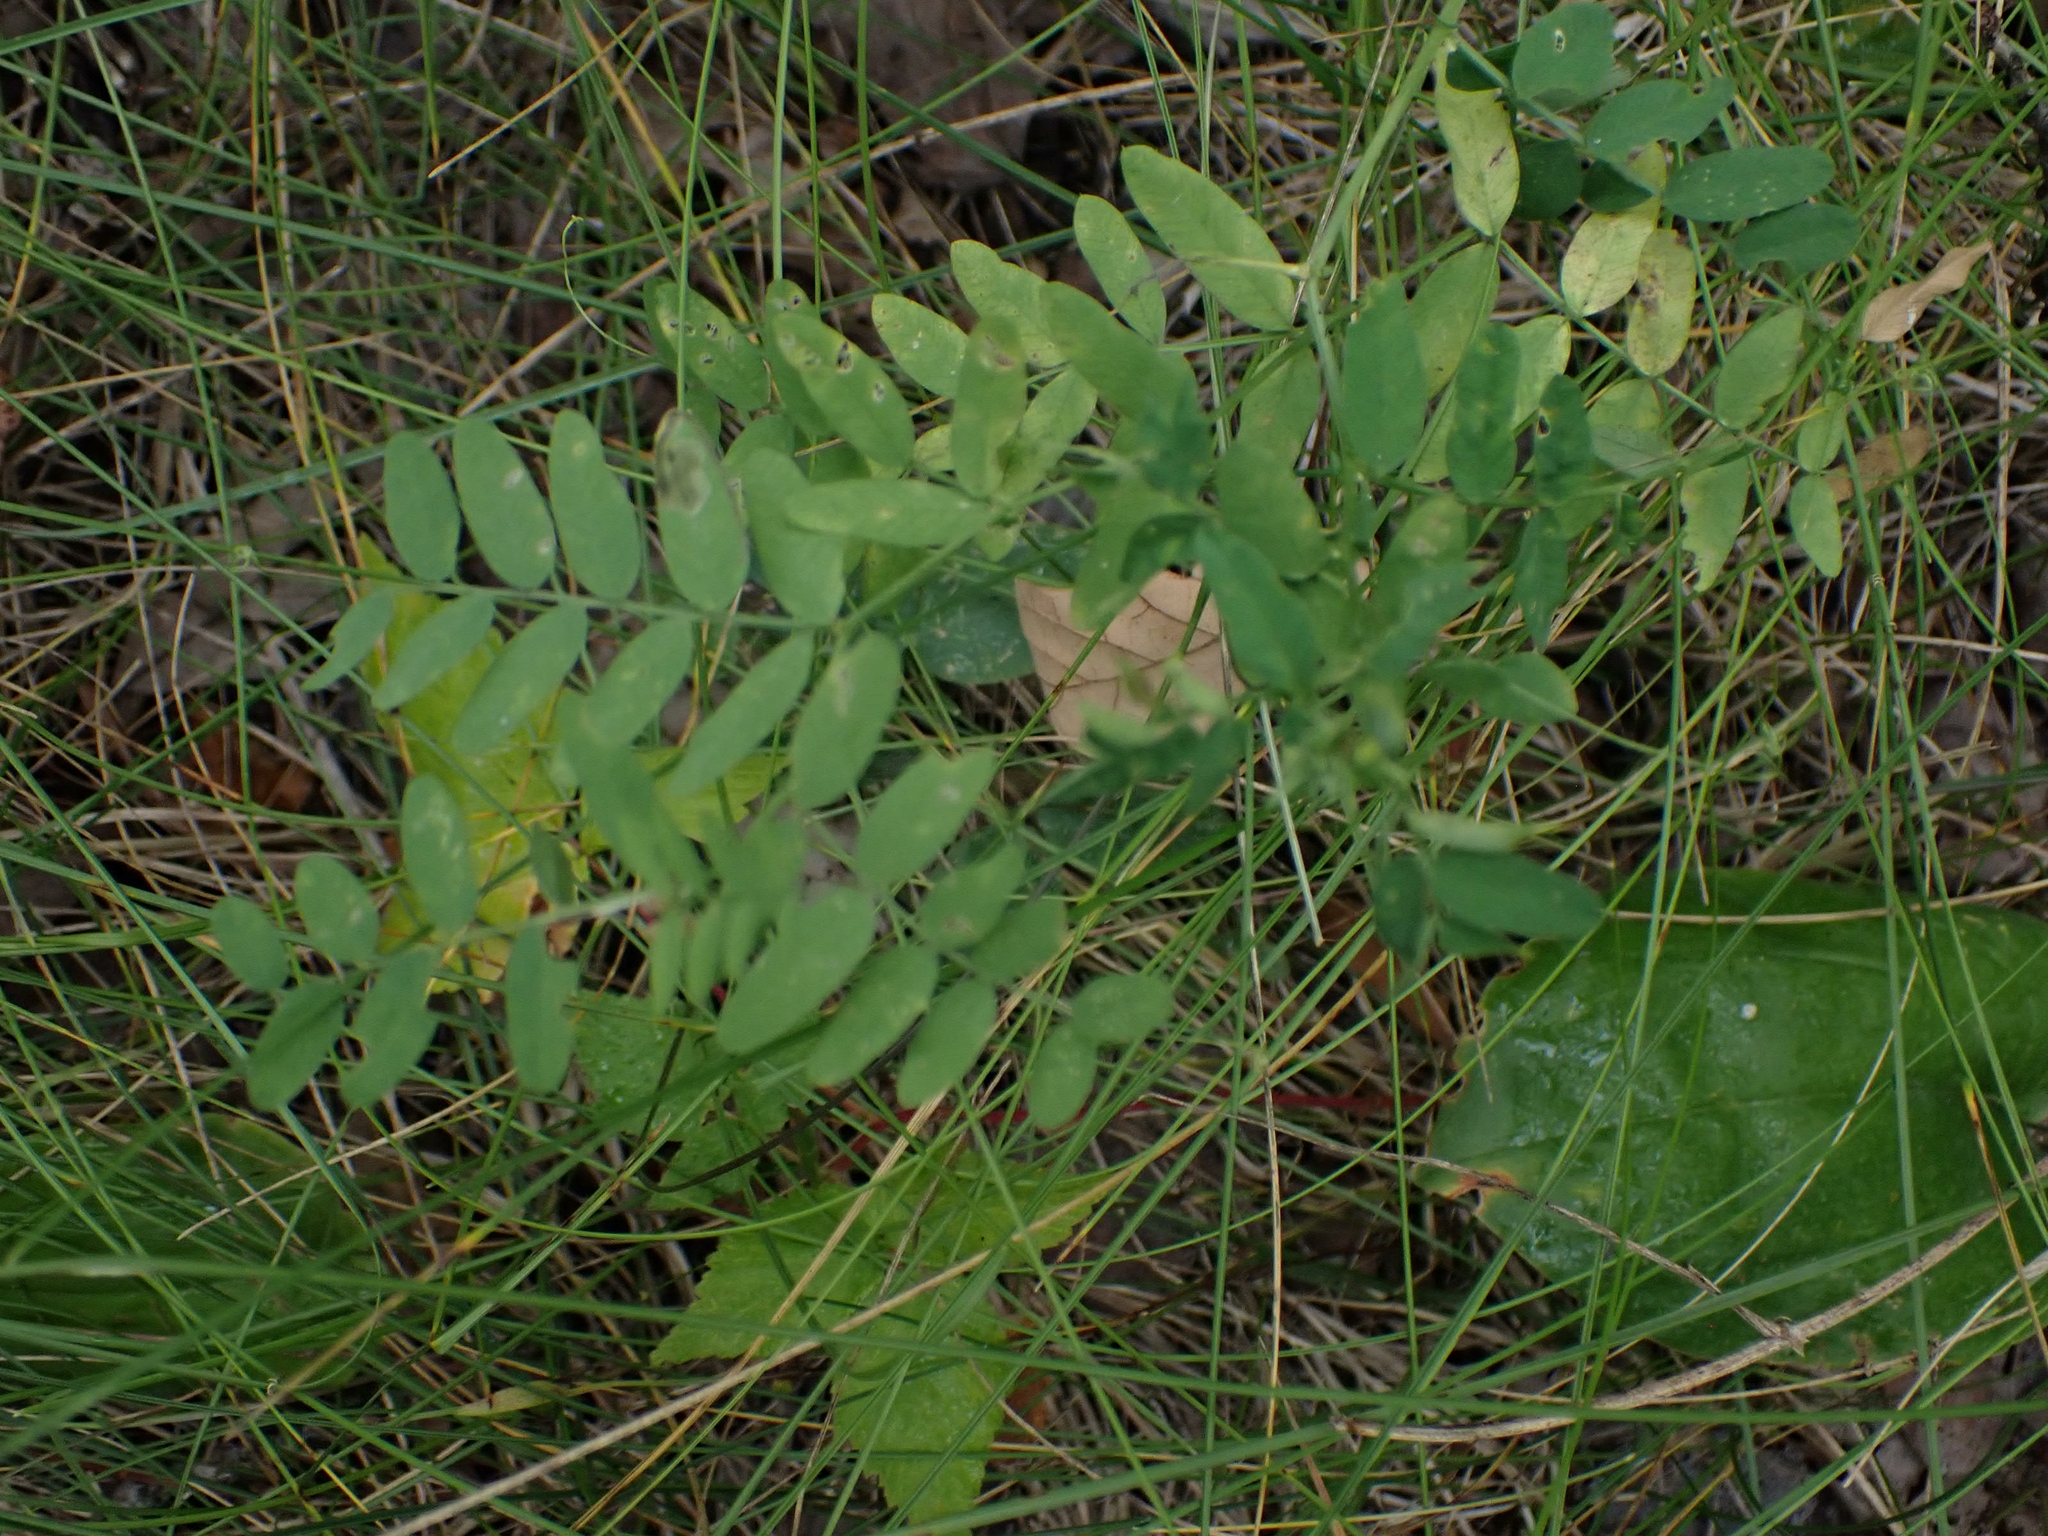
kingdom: Plantae
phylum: Tracheophyta
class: Magnoliopsida
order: Fabales
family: Fabaceae
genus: Vicia
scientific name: Vicia americana
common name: American vetch
